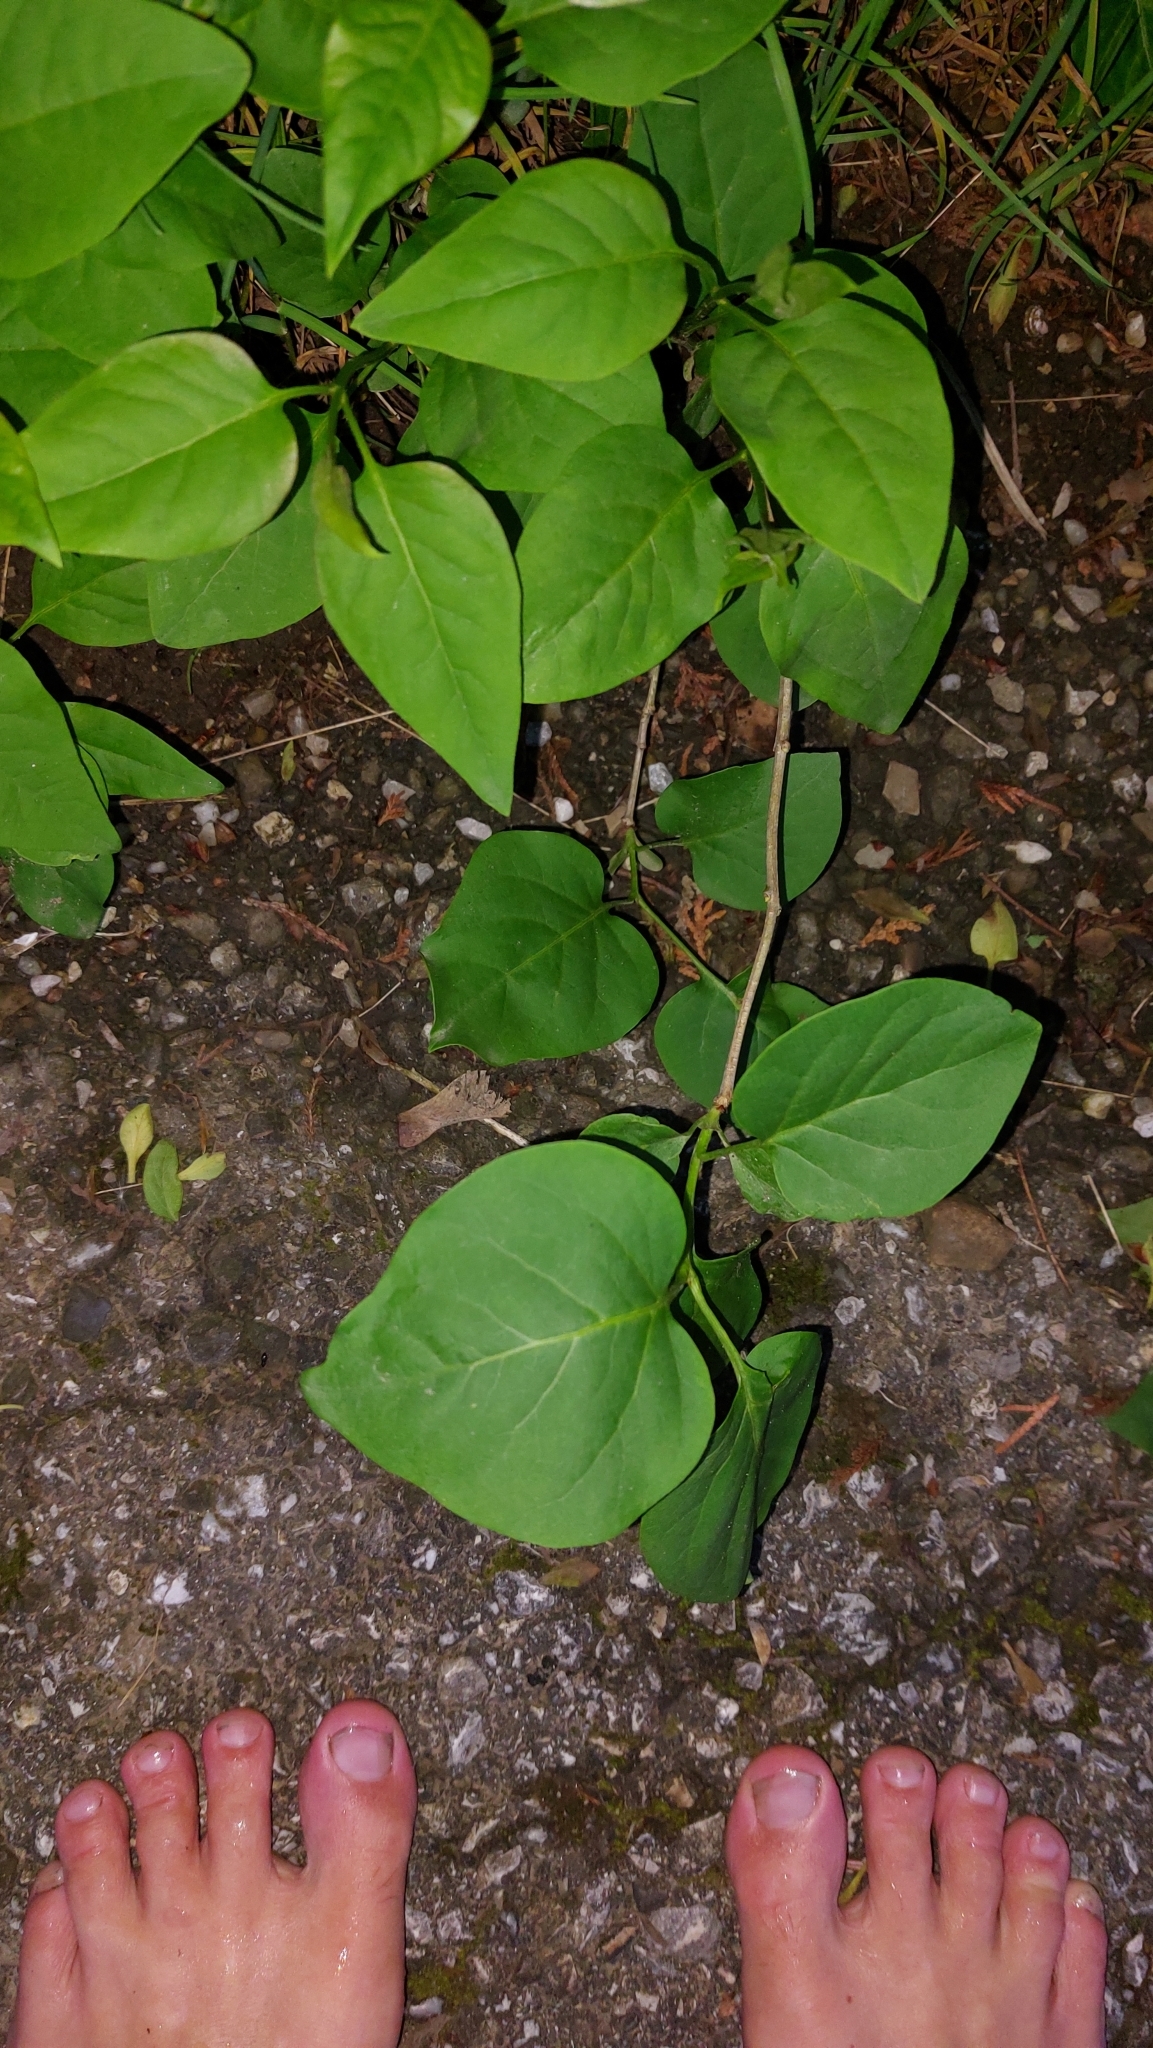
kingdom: Plantae
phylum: Tracheophyta
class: Magnoliopsida
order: Lamiales
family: Oleaceae
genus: Syringa
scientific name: Syringa vulgaris
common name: Common lilac
